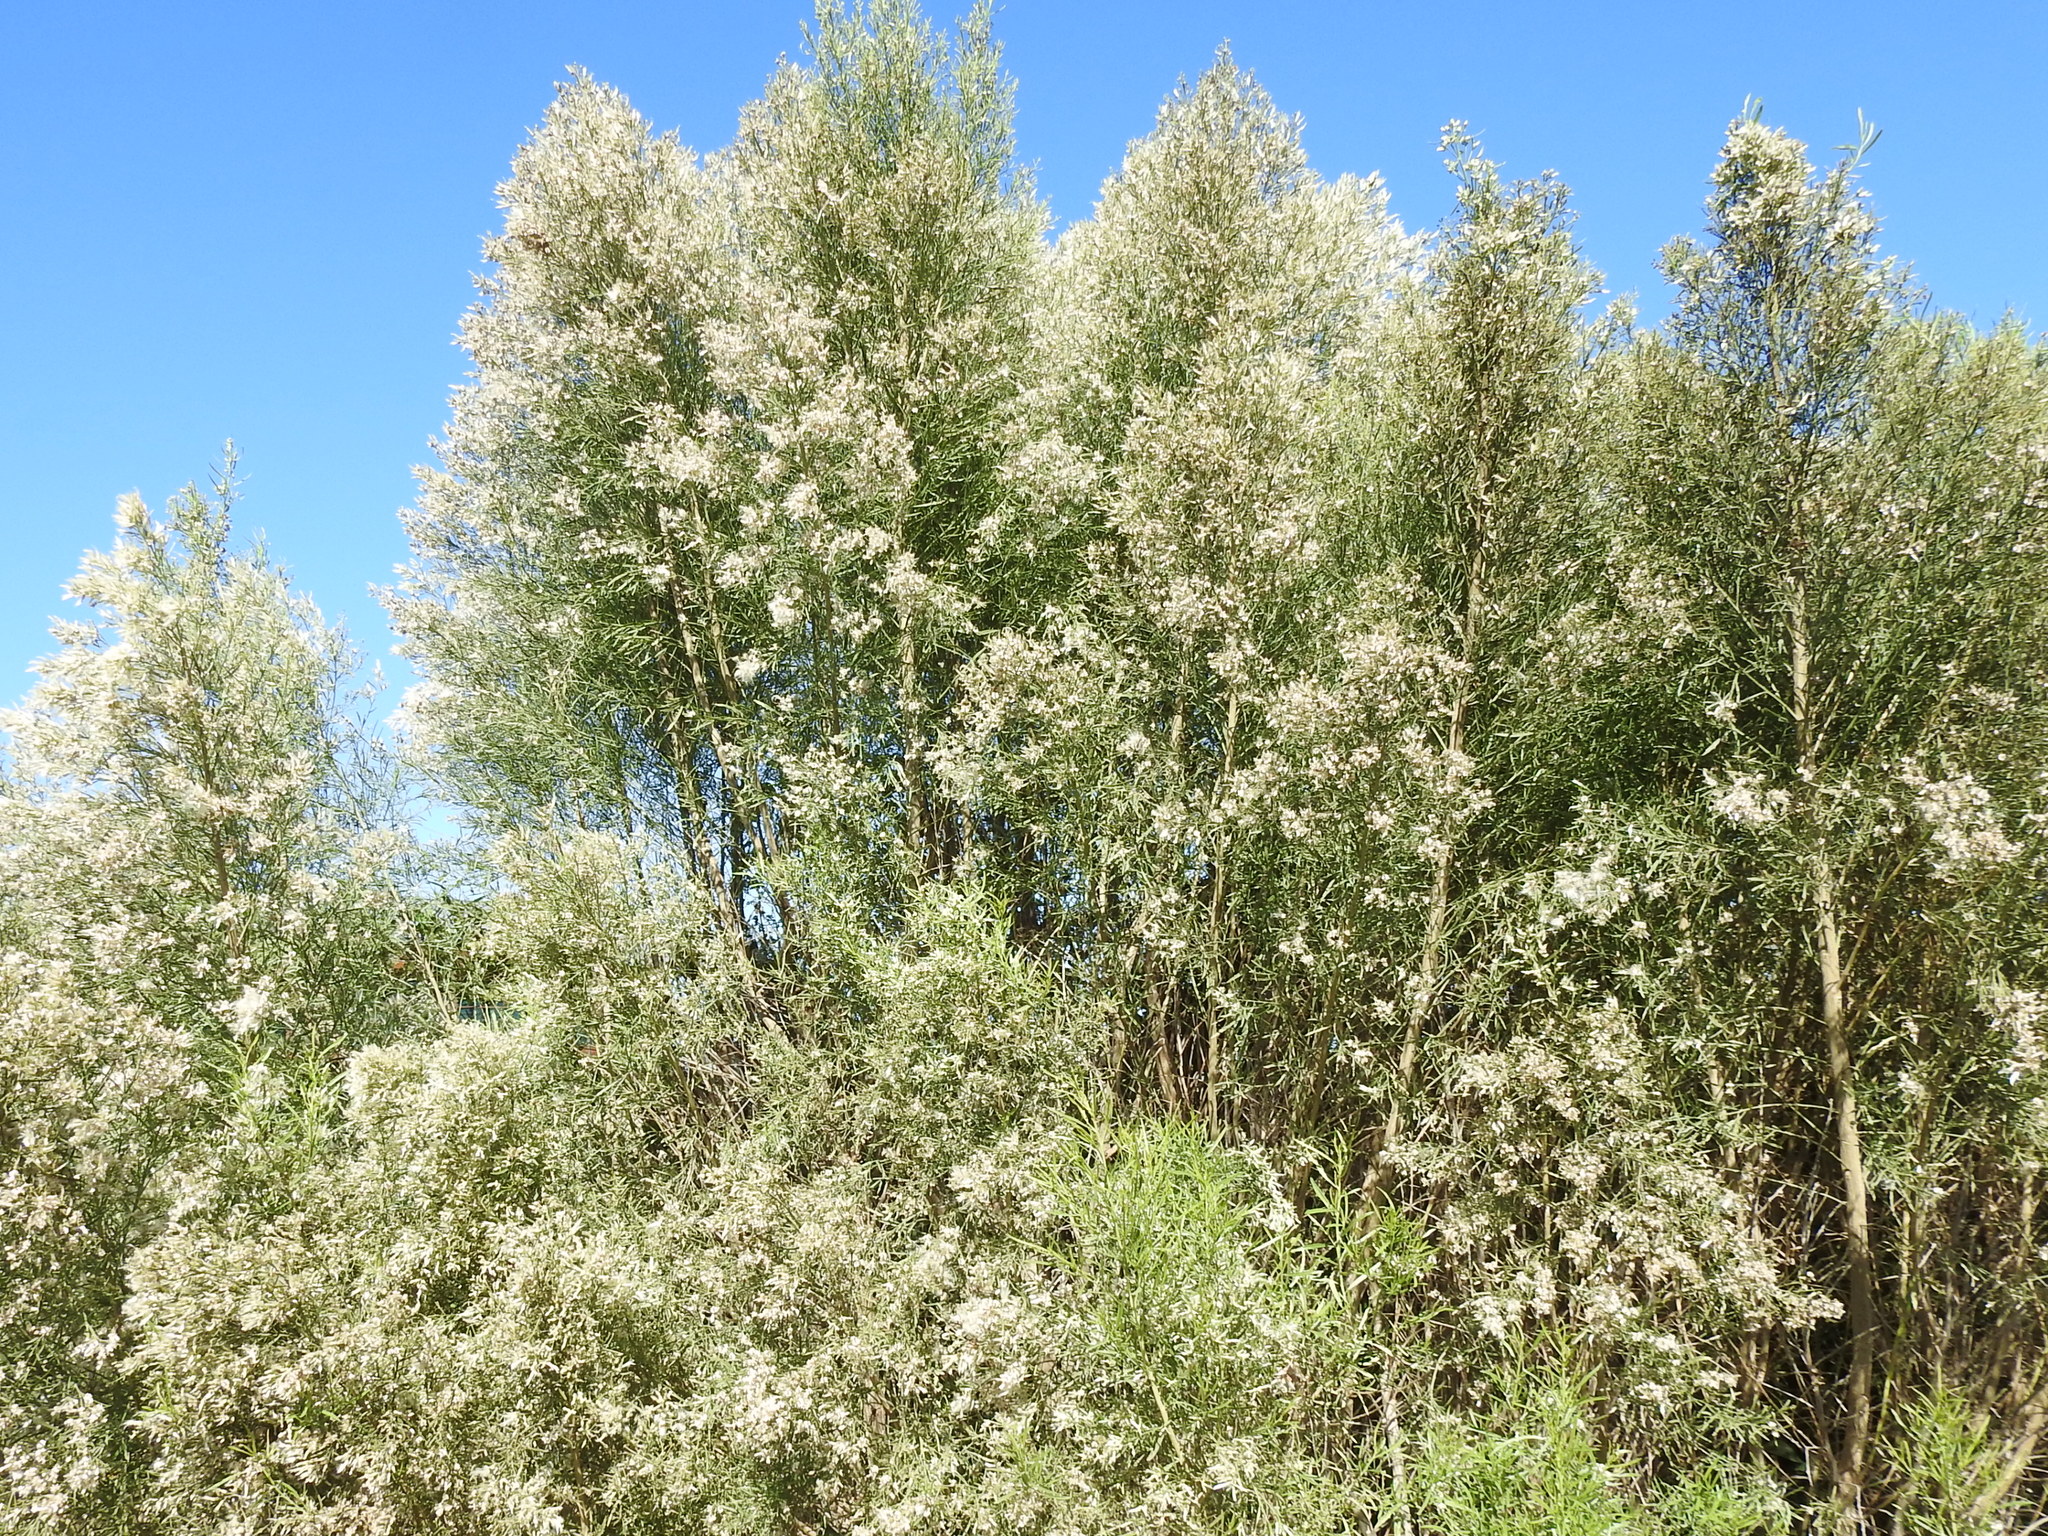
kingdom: Plantae
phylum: Tracheophyta
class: Magnoliopsida
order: Asterales
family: Asteraceae
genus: Baccharis
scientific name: Baccharis neglecta
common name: Roosevelt-weed
